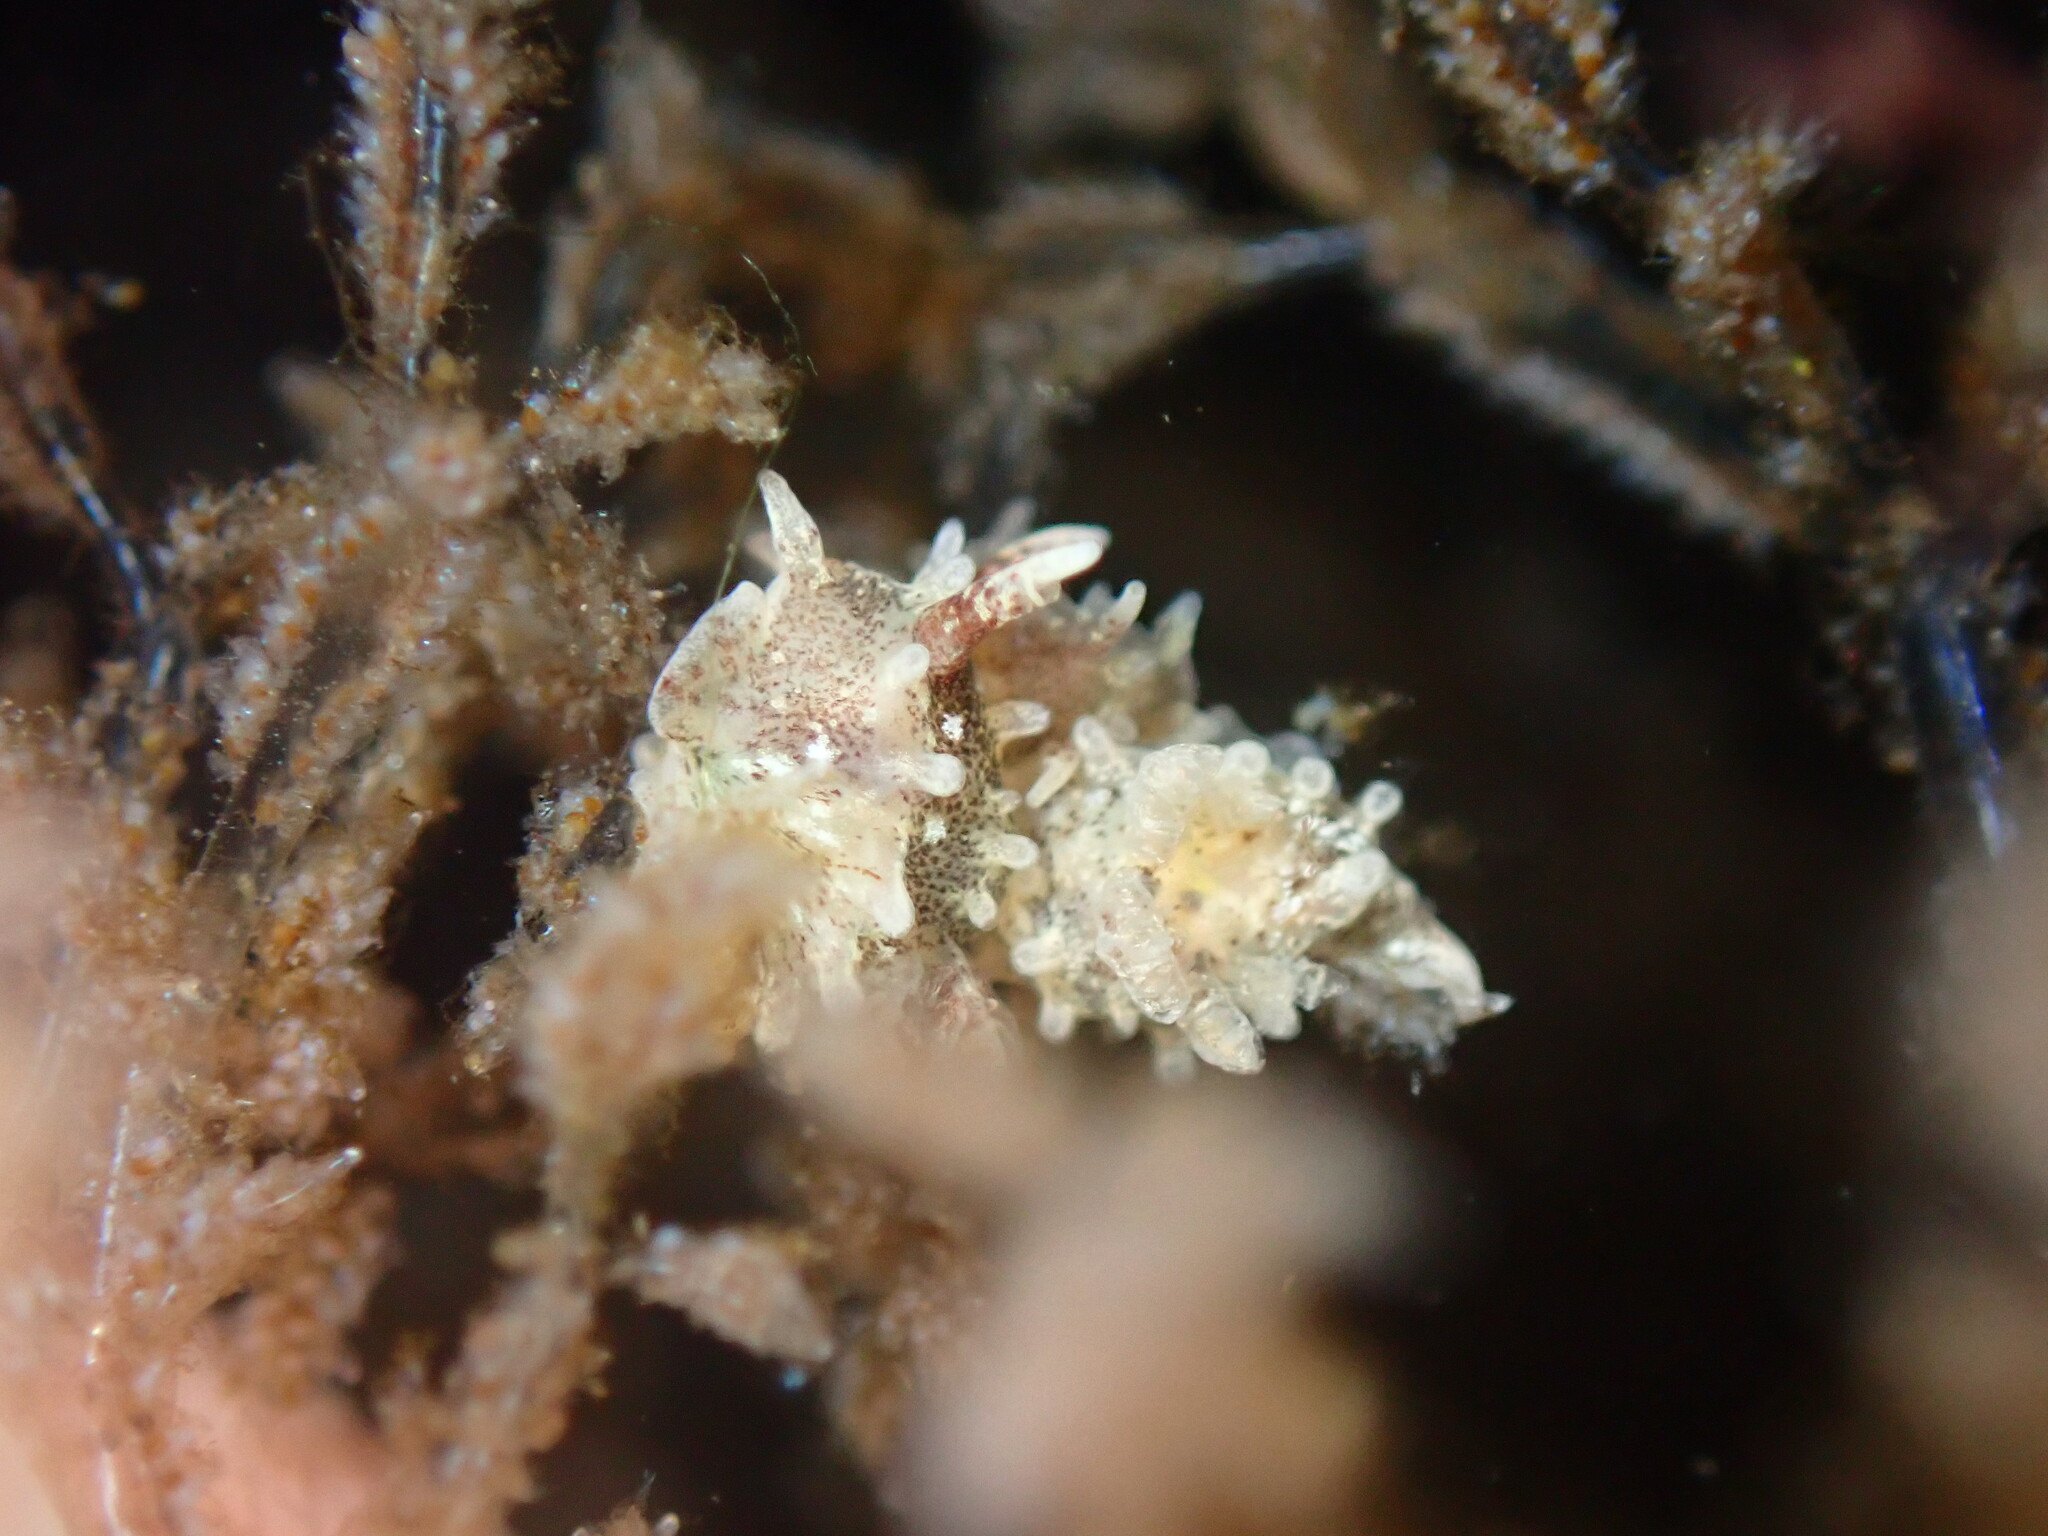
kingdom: Animalia
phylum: Mollusca
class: Gastropoda
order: Nudibranchia
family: Goniodorididae
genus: Okenia
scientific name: Okenia
